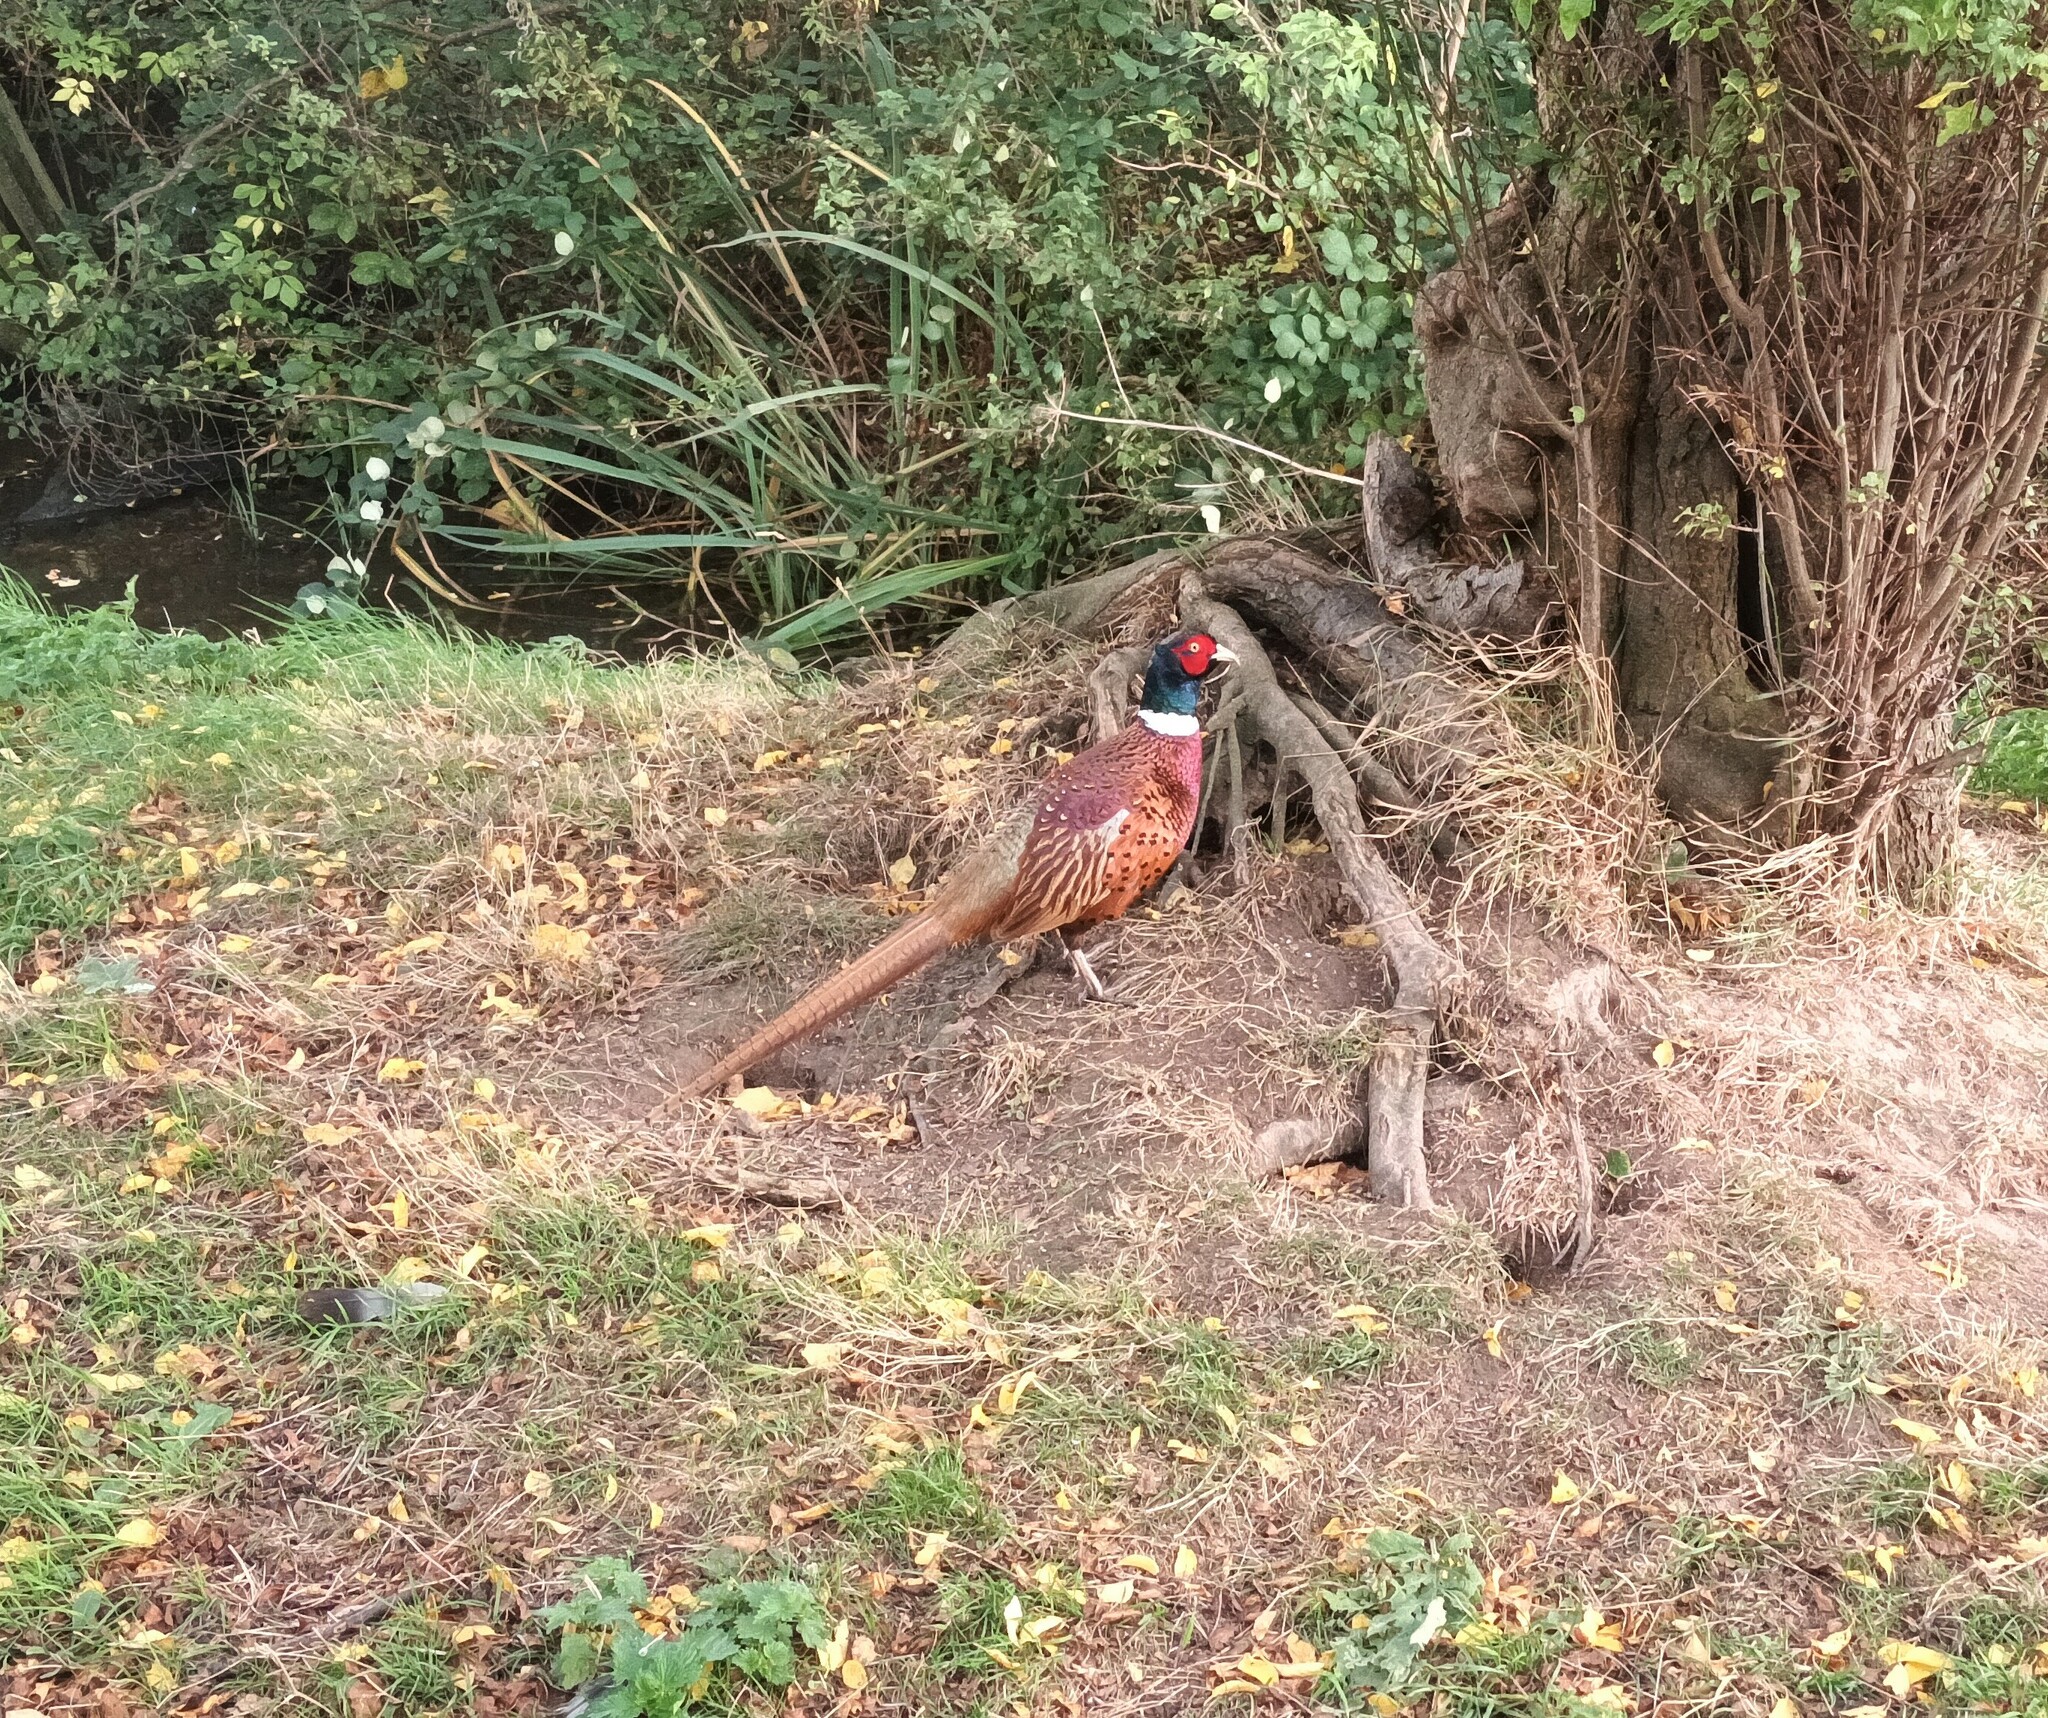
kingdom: Animalia
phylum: Chordata
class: Aves
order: Galliformes
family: Phasianidae
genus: Phasianus
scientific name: Phasianus colchicus
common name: Common pheasant
